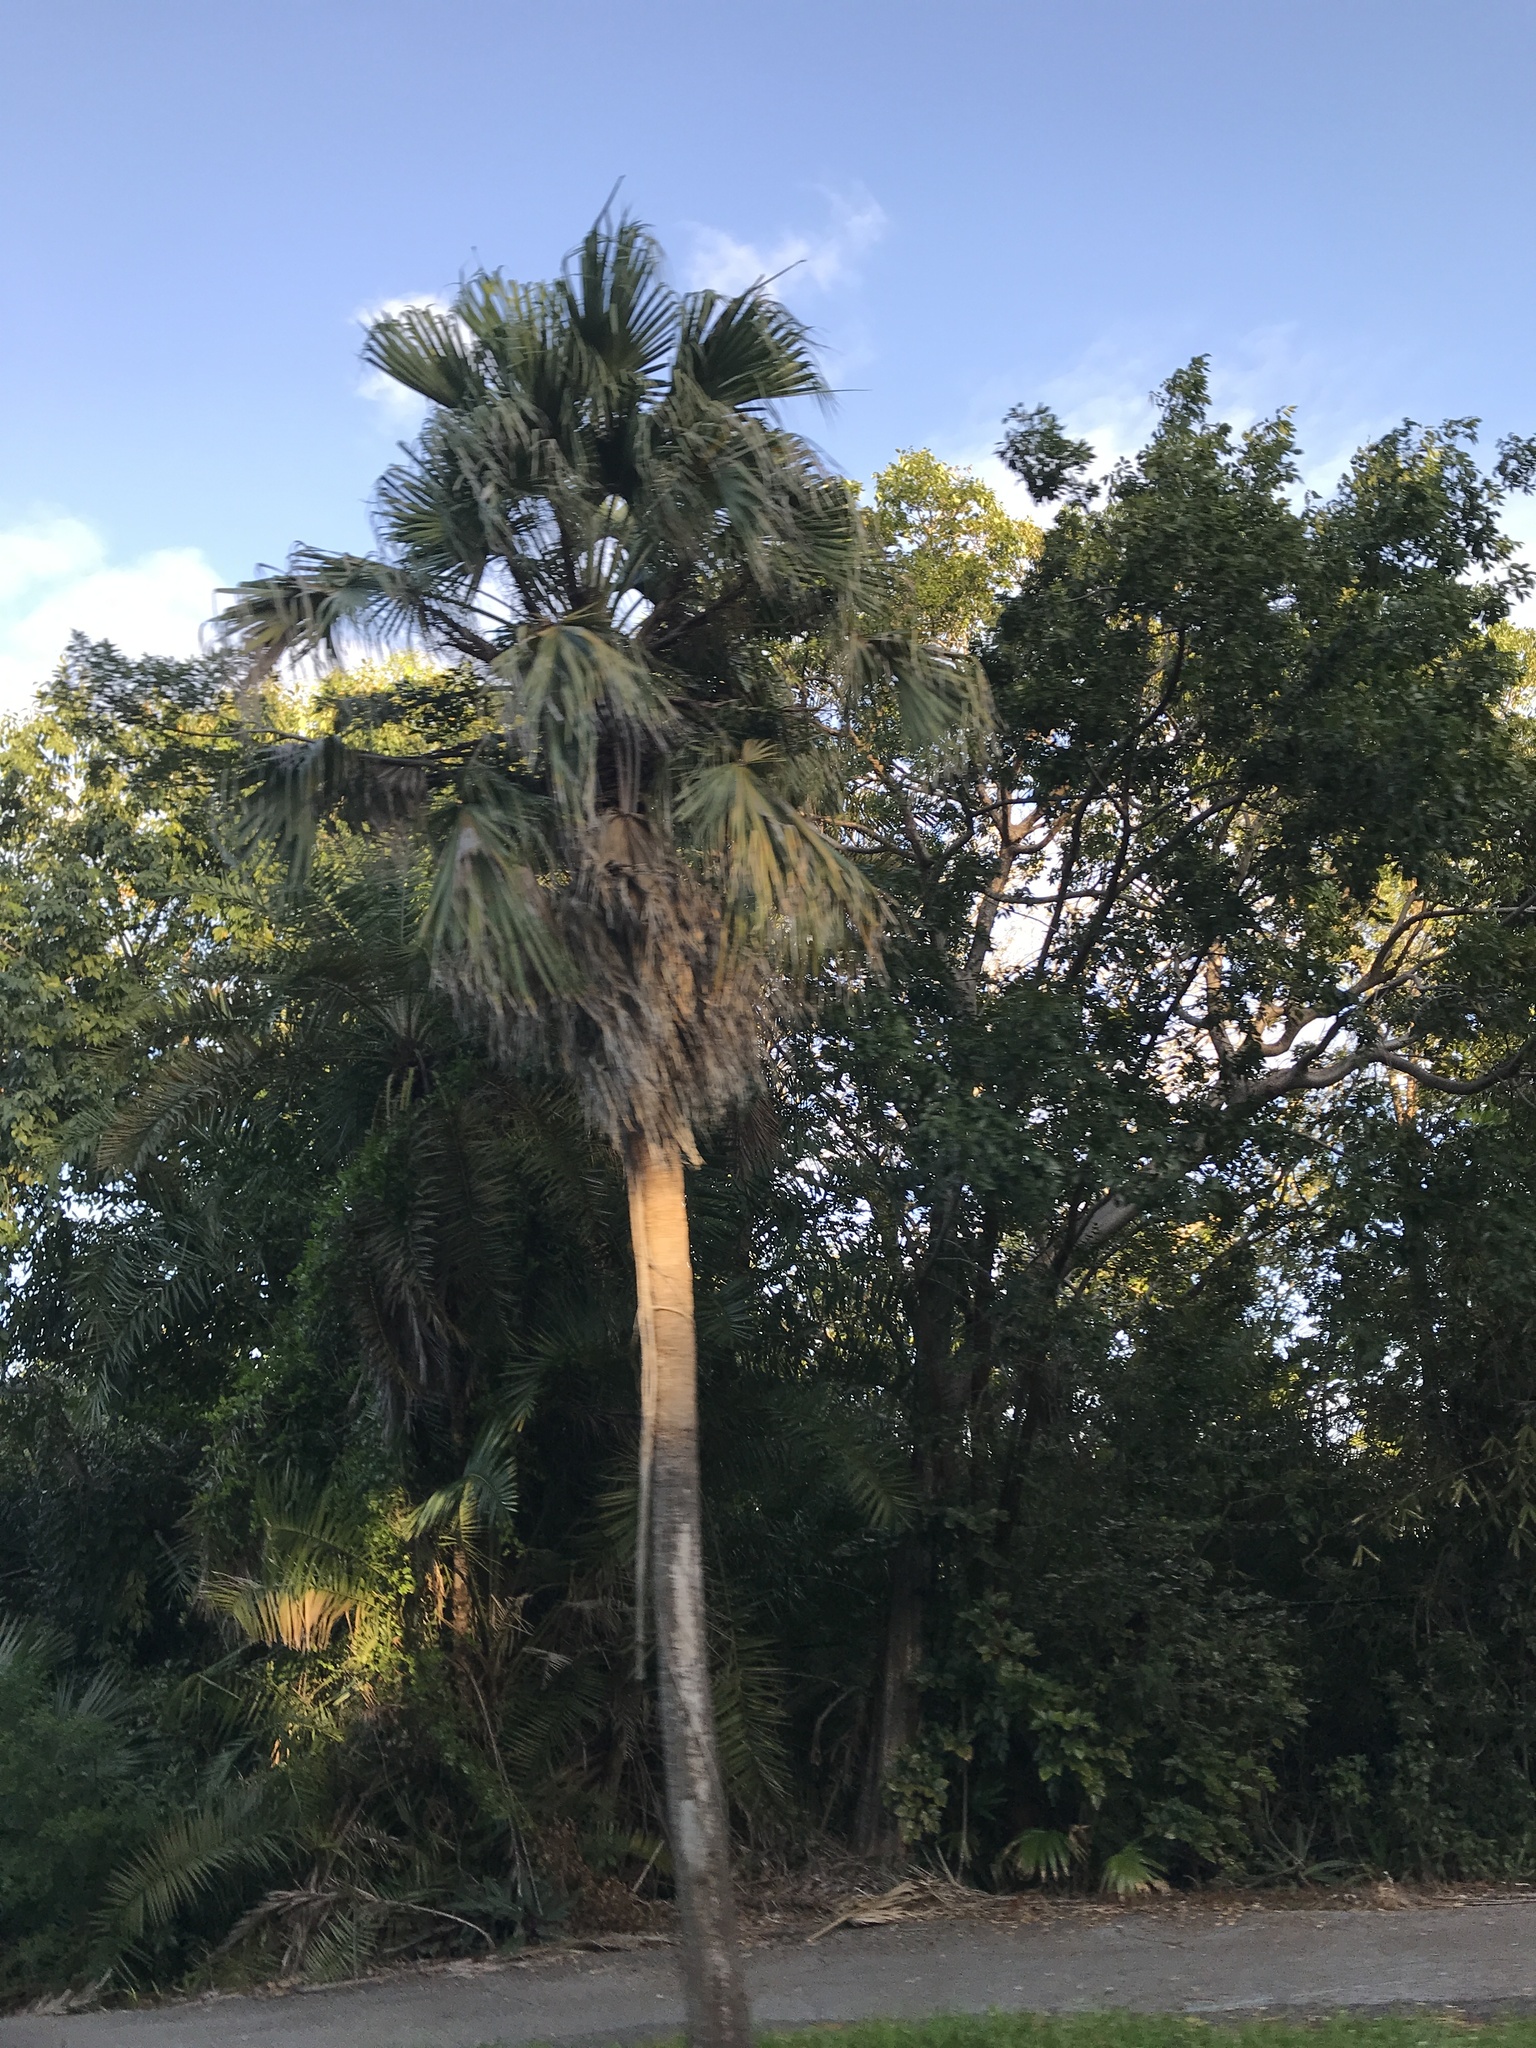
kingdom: Plantae
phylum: Tracheophyta
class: Liliopsida
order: Arecales
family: Arecaceae
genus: Sabal
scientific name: Sabal palmetto
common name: Blue palmetto
